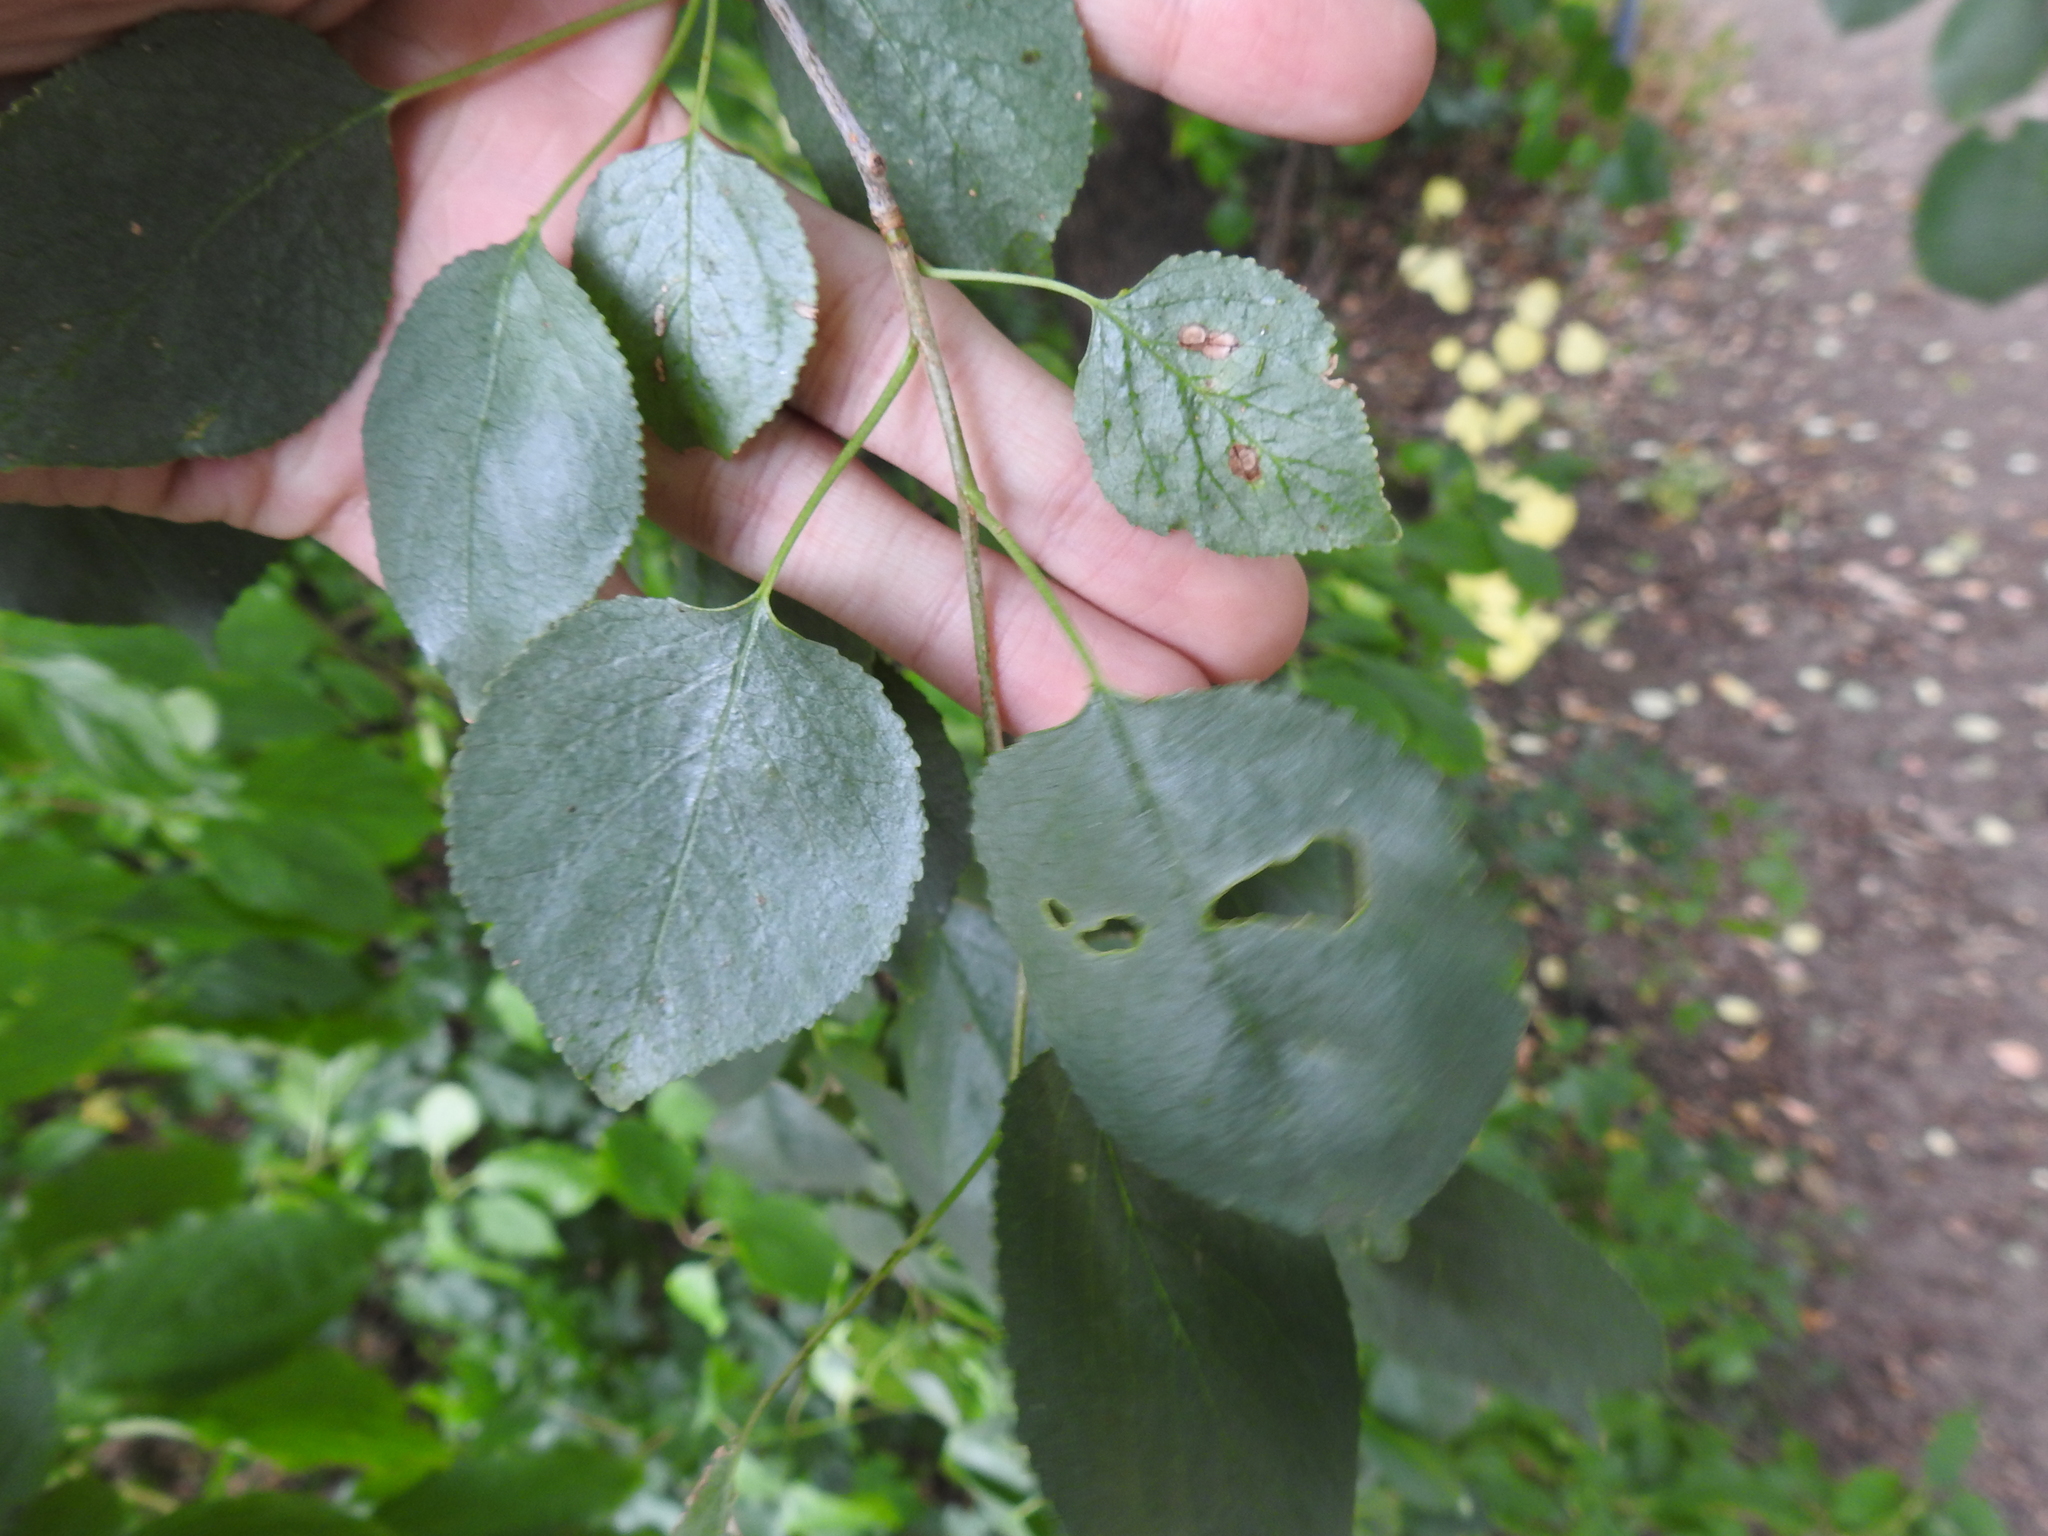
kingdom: Plantae
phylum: Tracheophyta
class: Magnoliopsida
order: Rosales
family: Rosaceae
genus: Prunus
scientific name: Prunus mahaleb
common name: Mahaleb cherry
